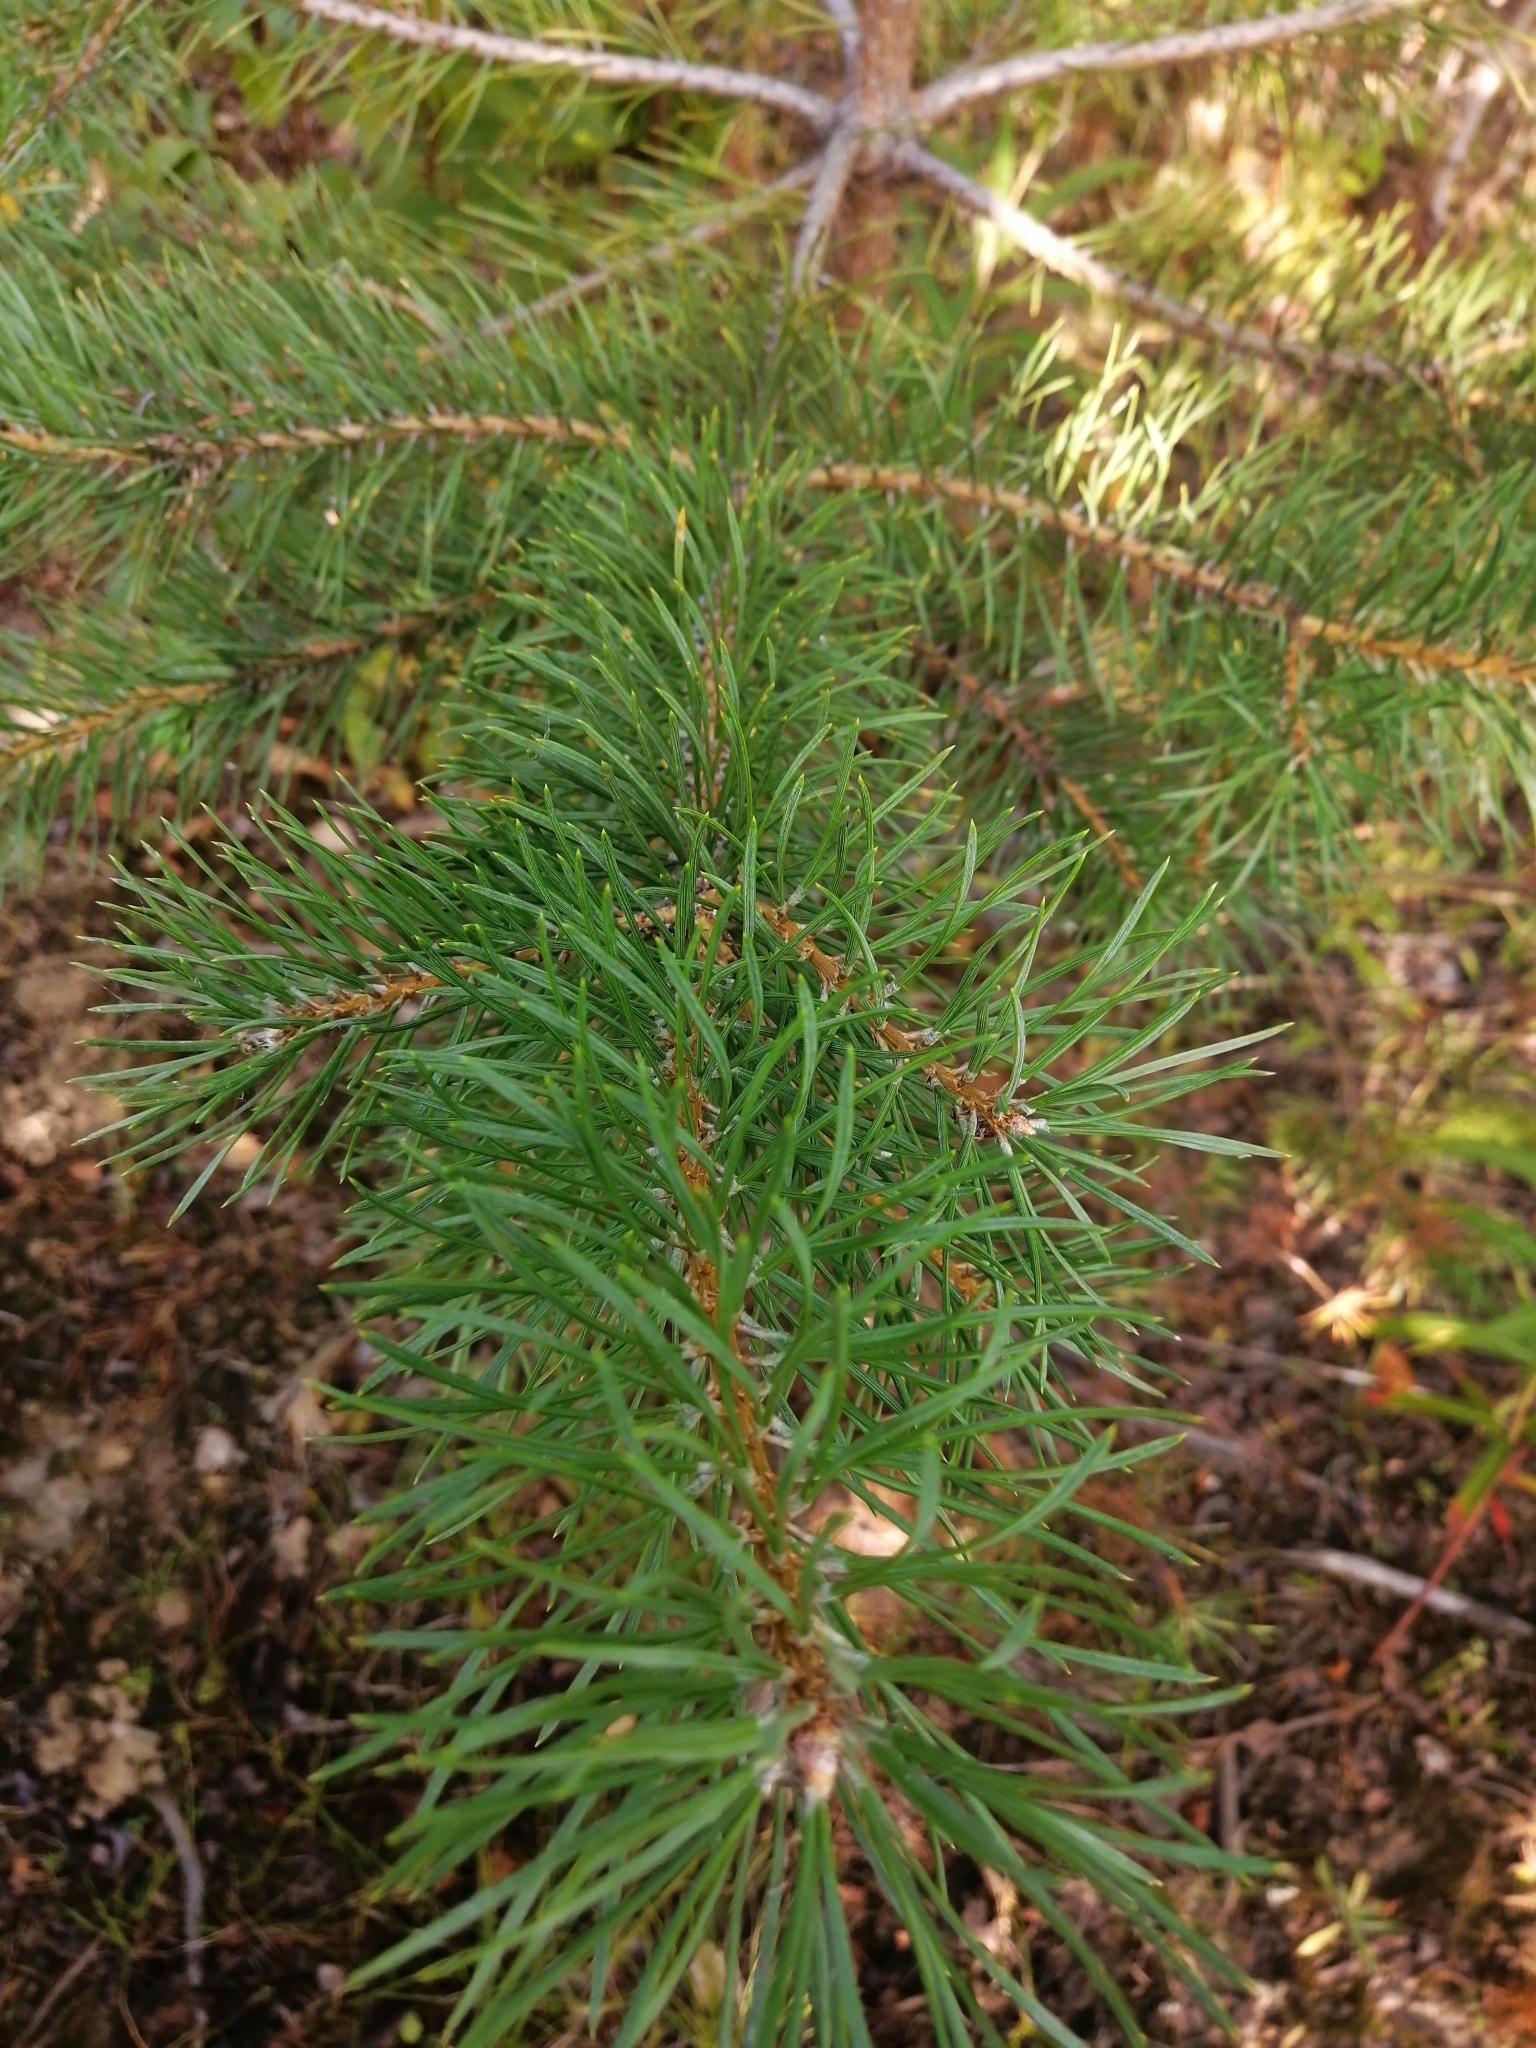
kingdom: Plantae
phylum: Tracheophyta
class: Pinopsida
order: Pinales
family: Pinaceae
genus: Pinus
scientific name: Pinus sylvestris
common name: Scots pine
